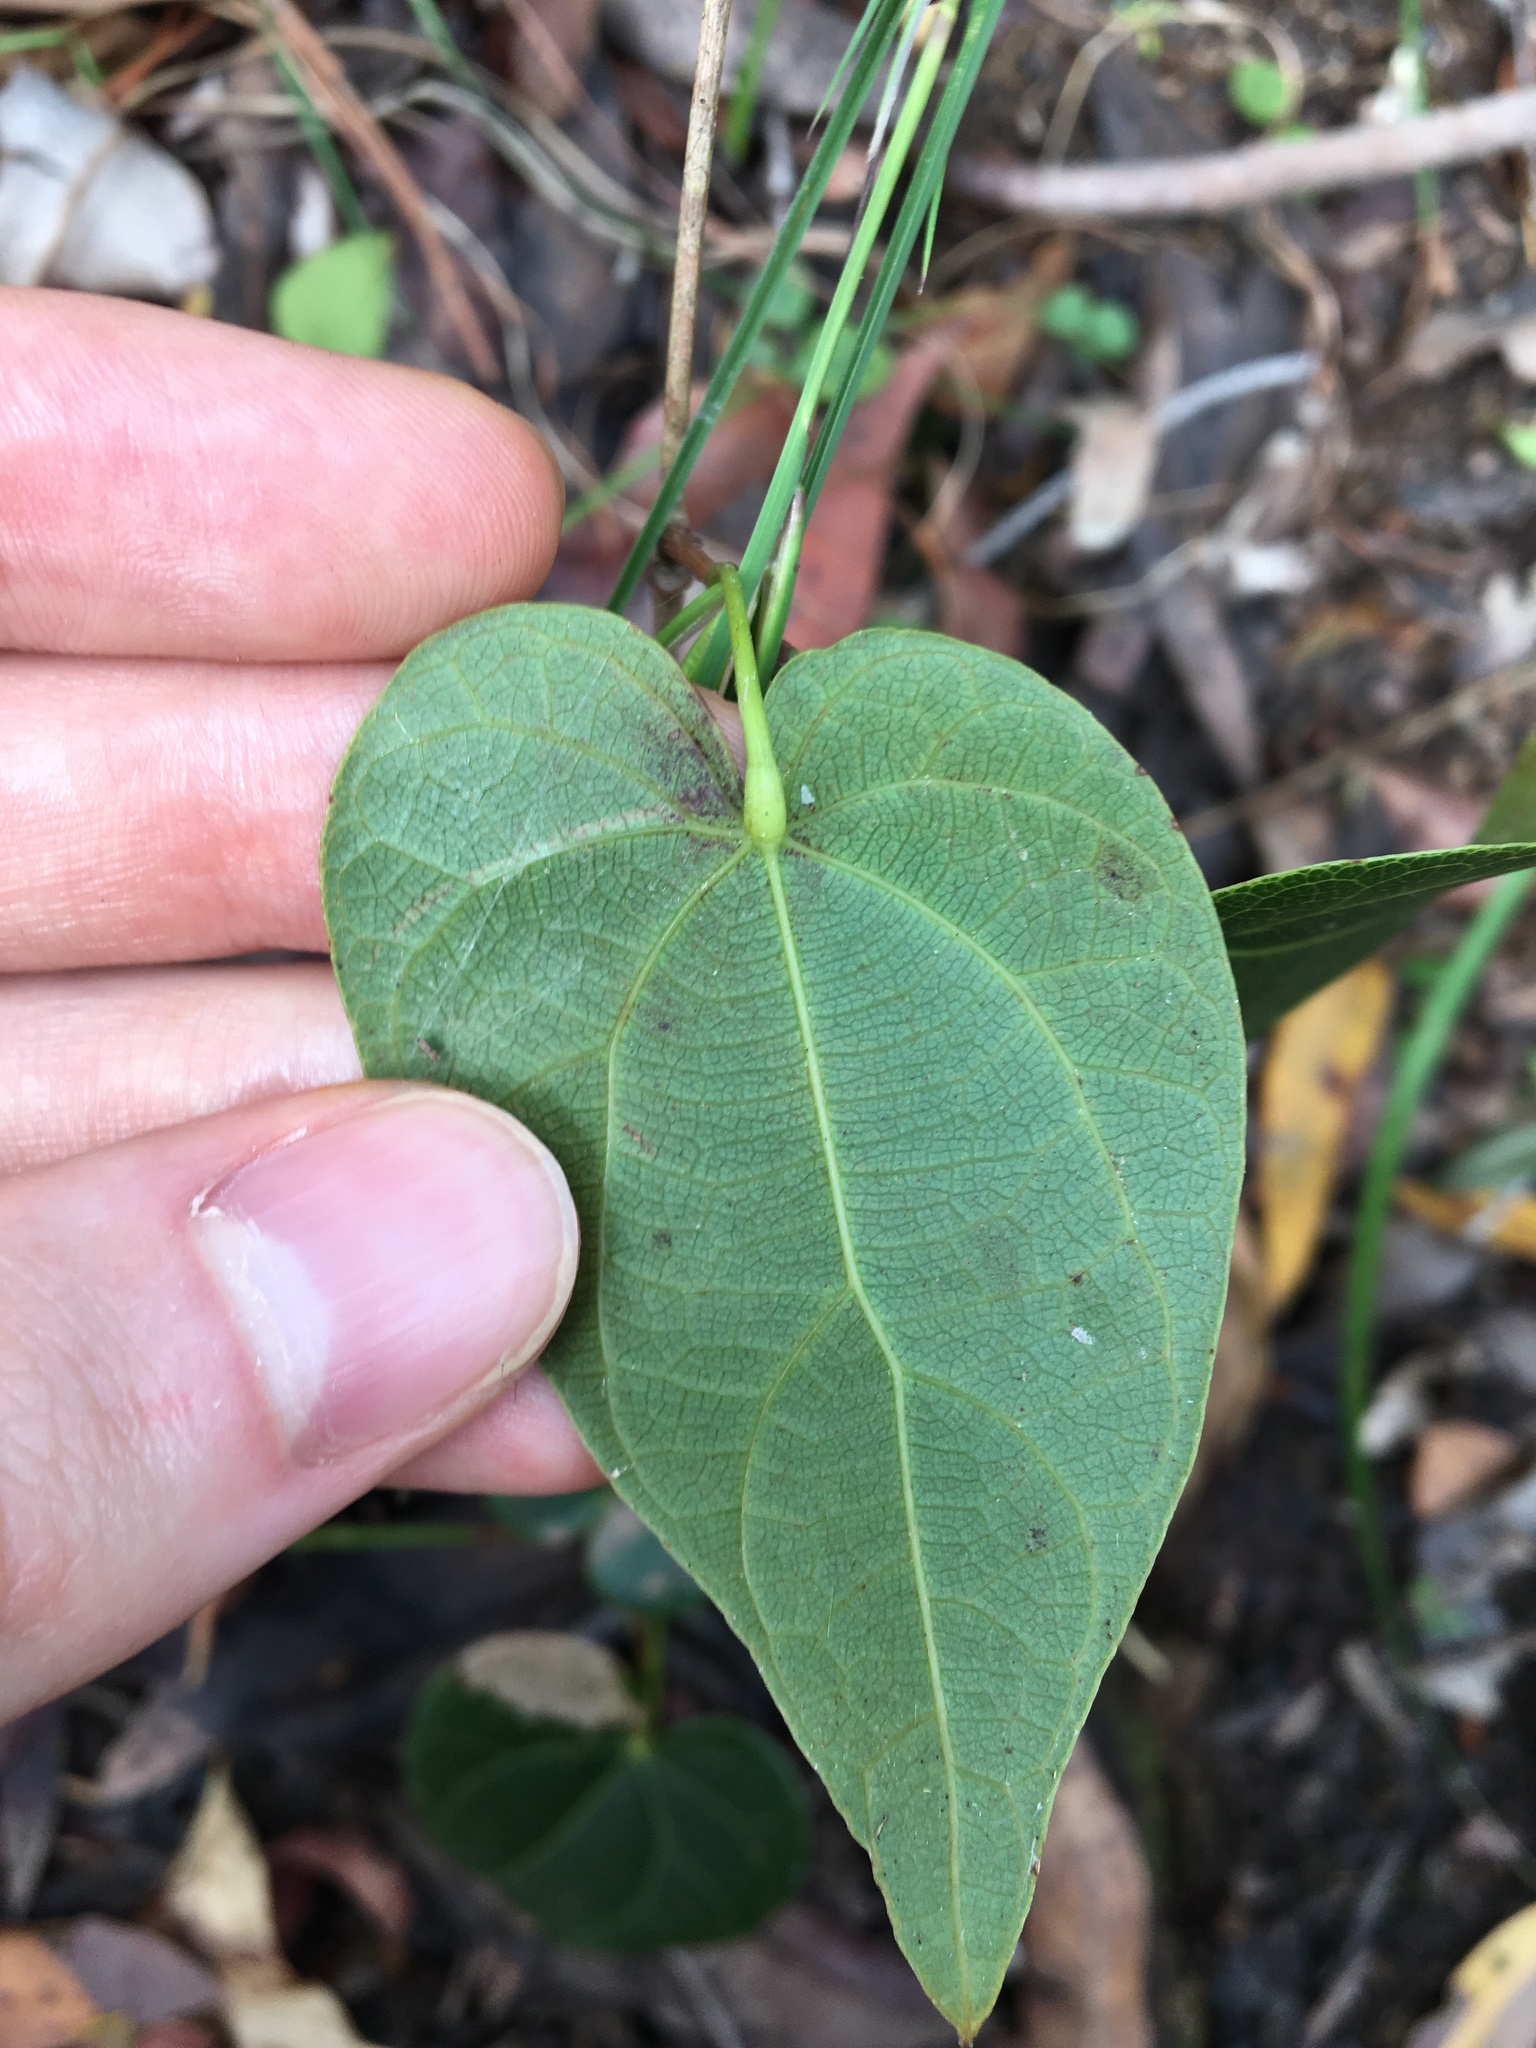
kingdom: Plantae
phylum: Tracheophyta
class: Magnoliopsida
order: Ranunculales
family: Menispermaceae
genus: Sarcopetalum
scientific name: Sarcopetalum harveyanum
